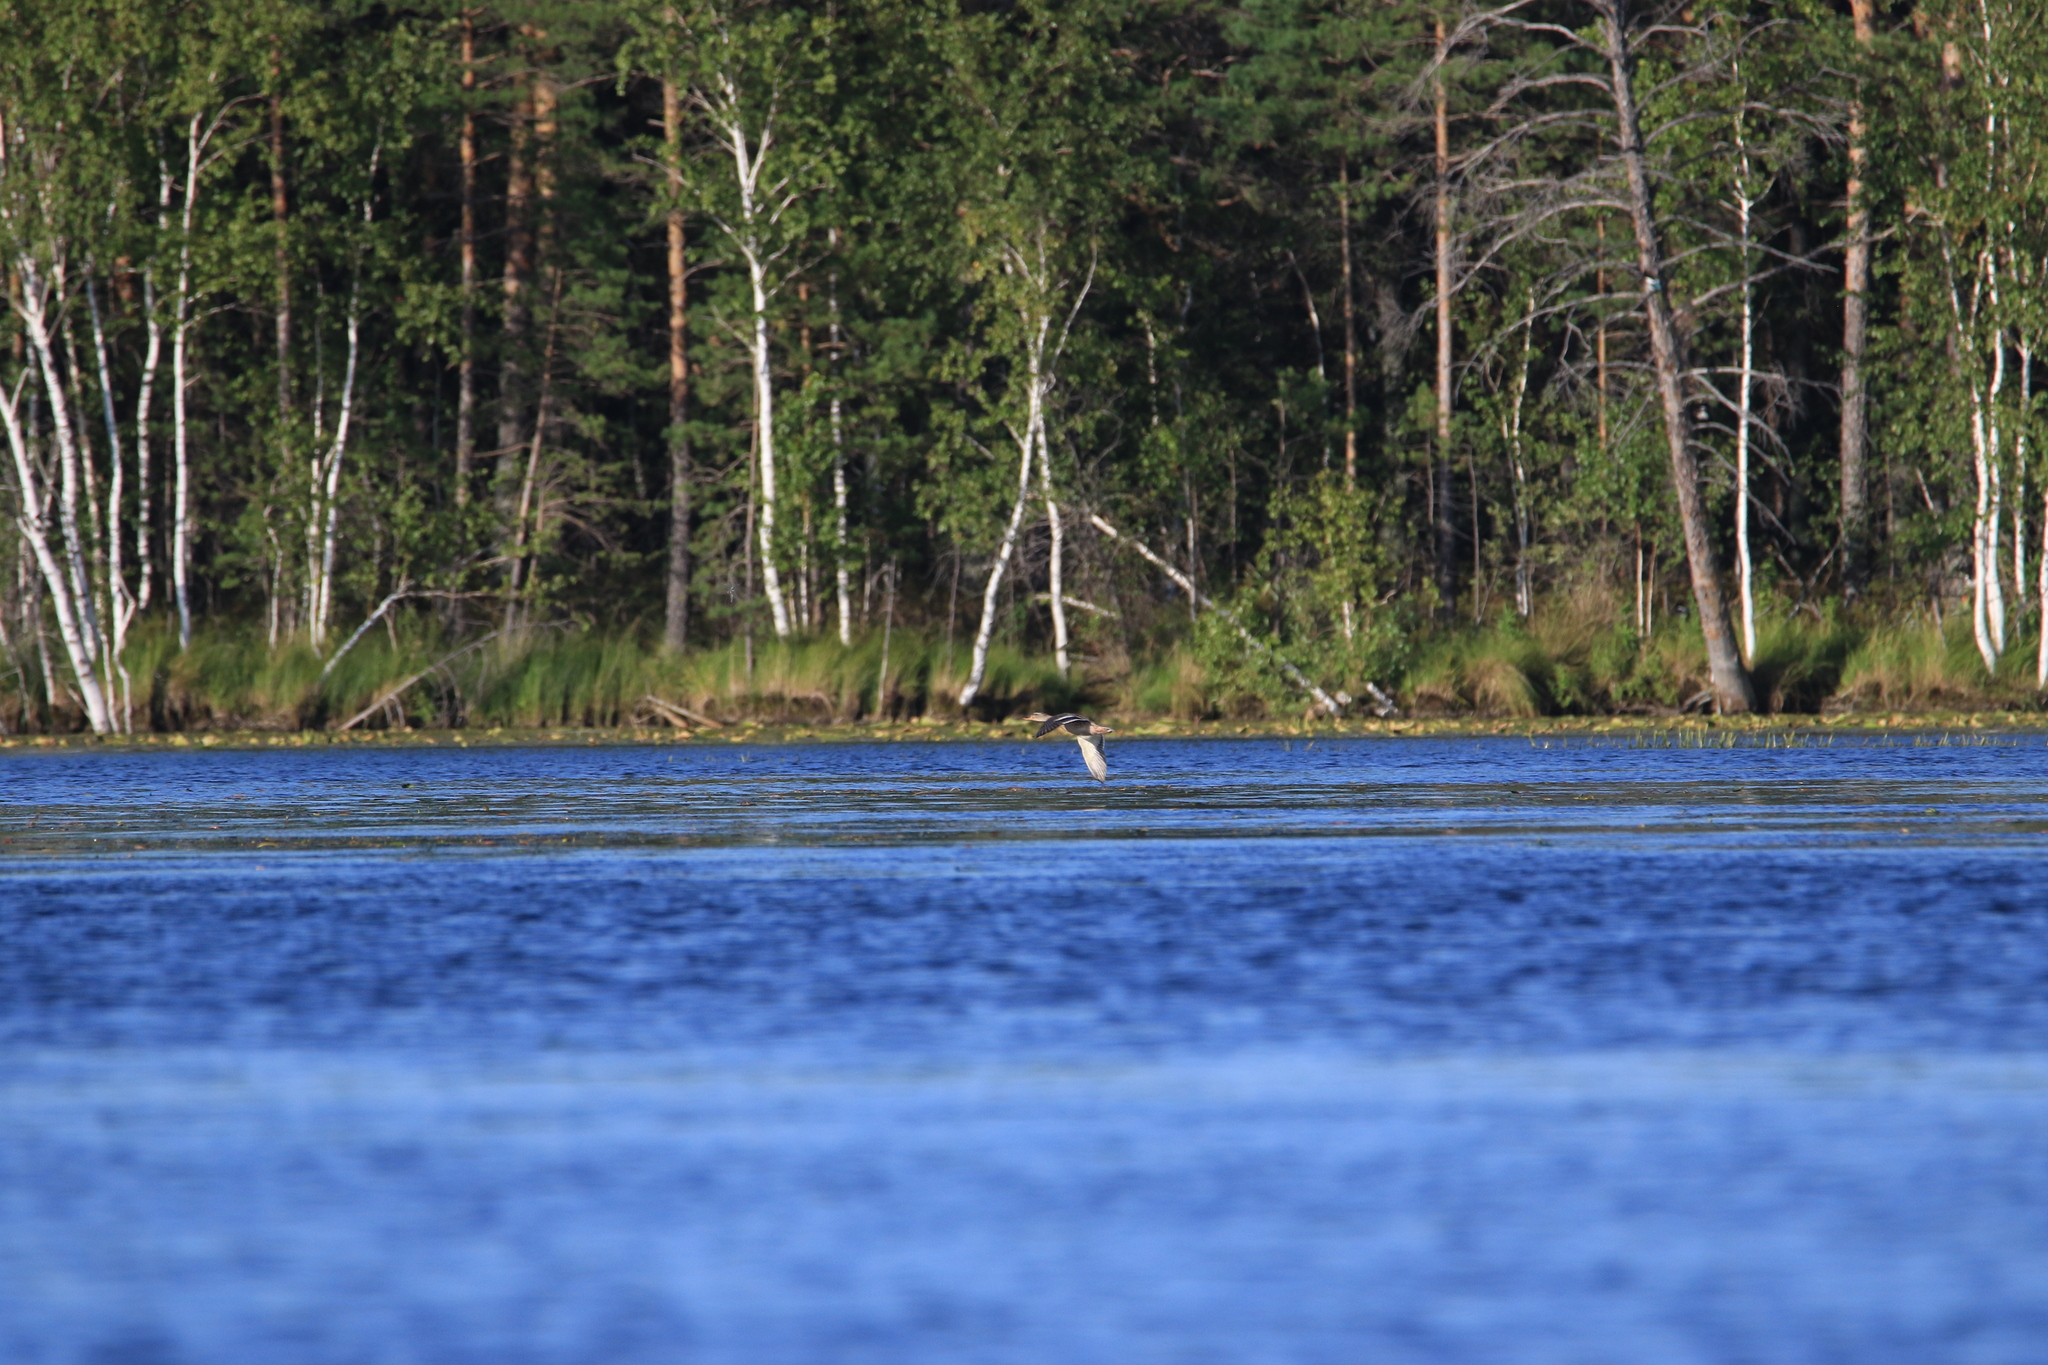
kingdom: Animalia
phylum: Chordata
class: Aves
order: Anseriformes
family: Anatidae
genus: Anas
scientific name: Anas platyrhynchos
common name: Mallard
